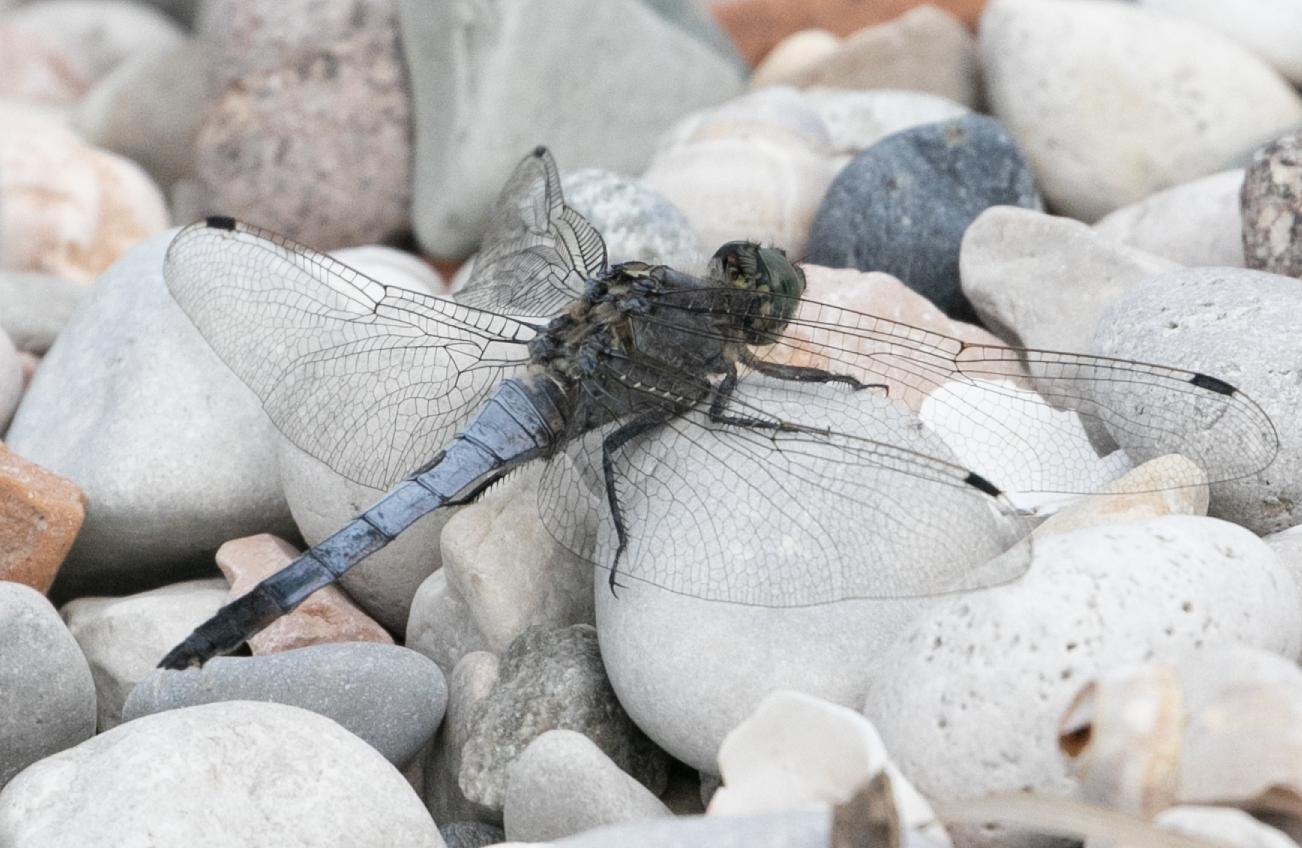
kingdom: Animalia
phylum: Arthropoda
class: Insecta
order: Odonata
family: Libellulidae
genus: Orthetrum
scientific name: Orthetrum cancellatum
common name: Black-tailed skimmer
